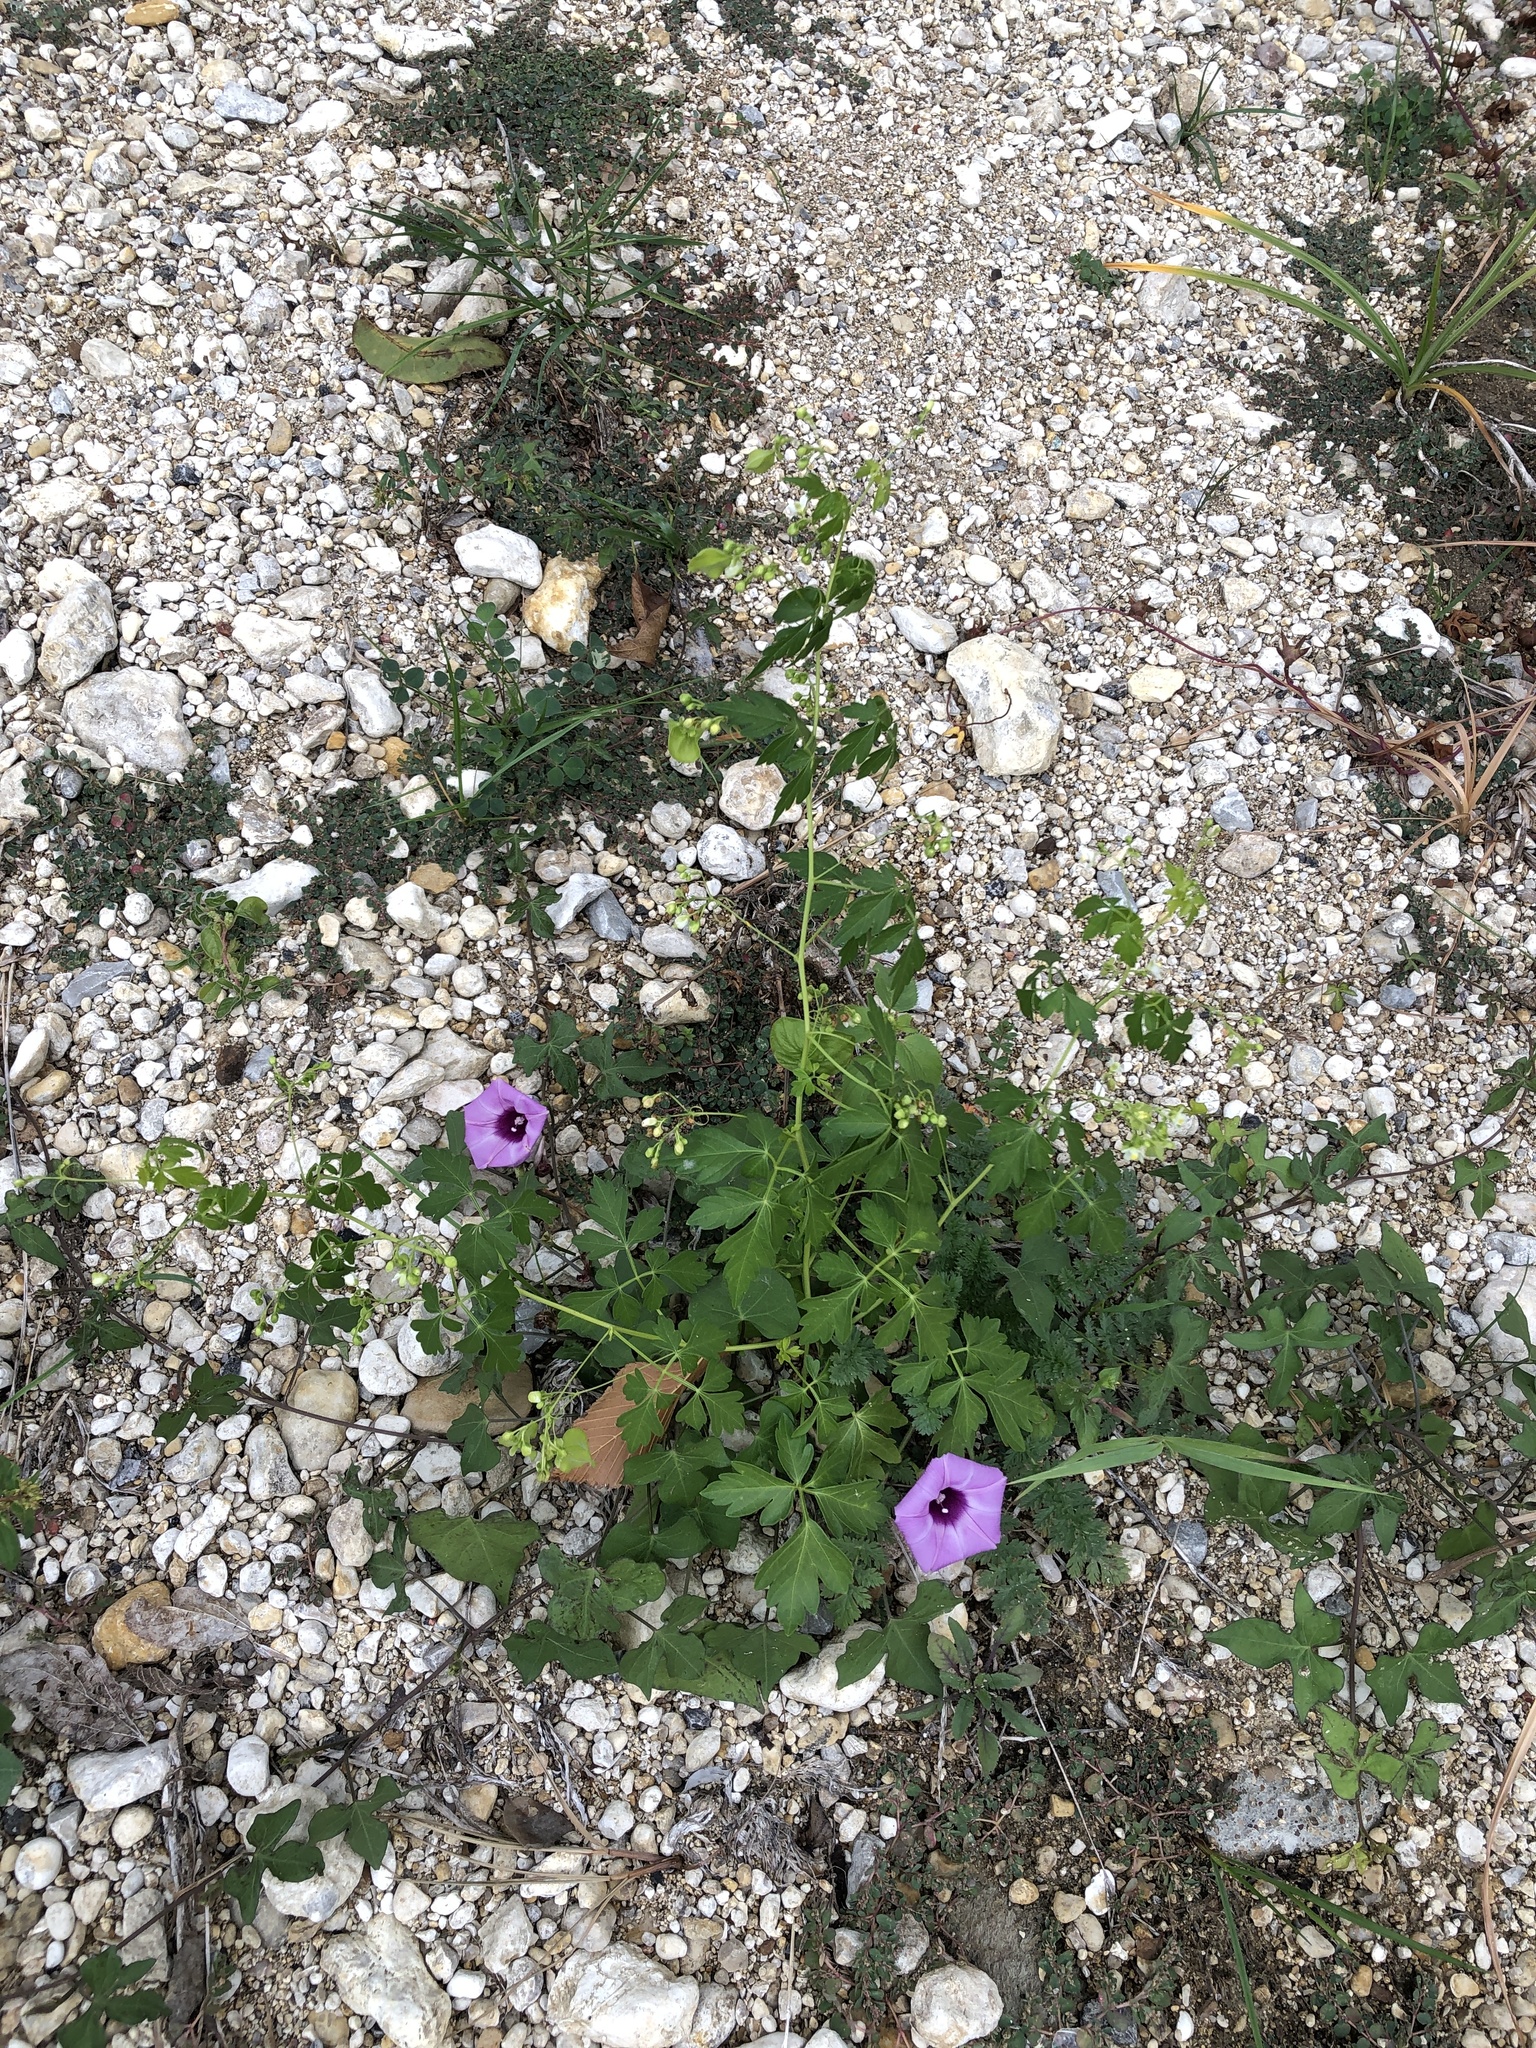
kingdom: Plantae
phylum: Tracheophyta
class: Magnoliopsida
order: Sapindales
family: Sapindaceae
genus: Cardiospermum
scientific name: Cardiospermum halicacabum
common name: Balloon vine
